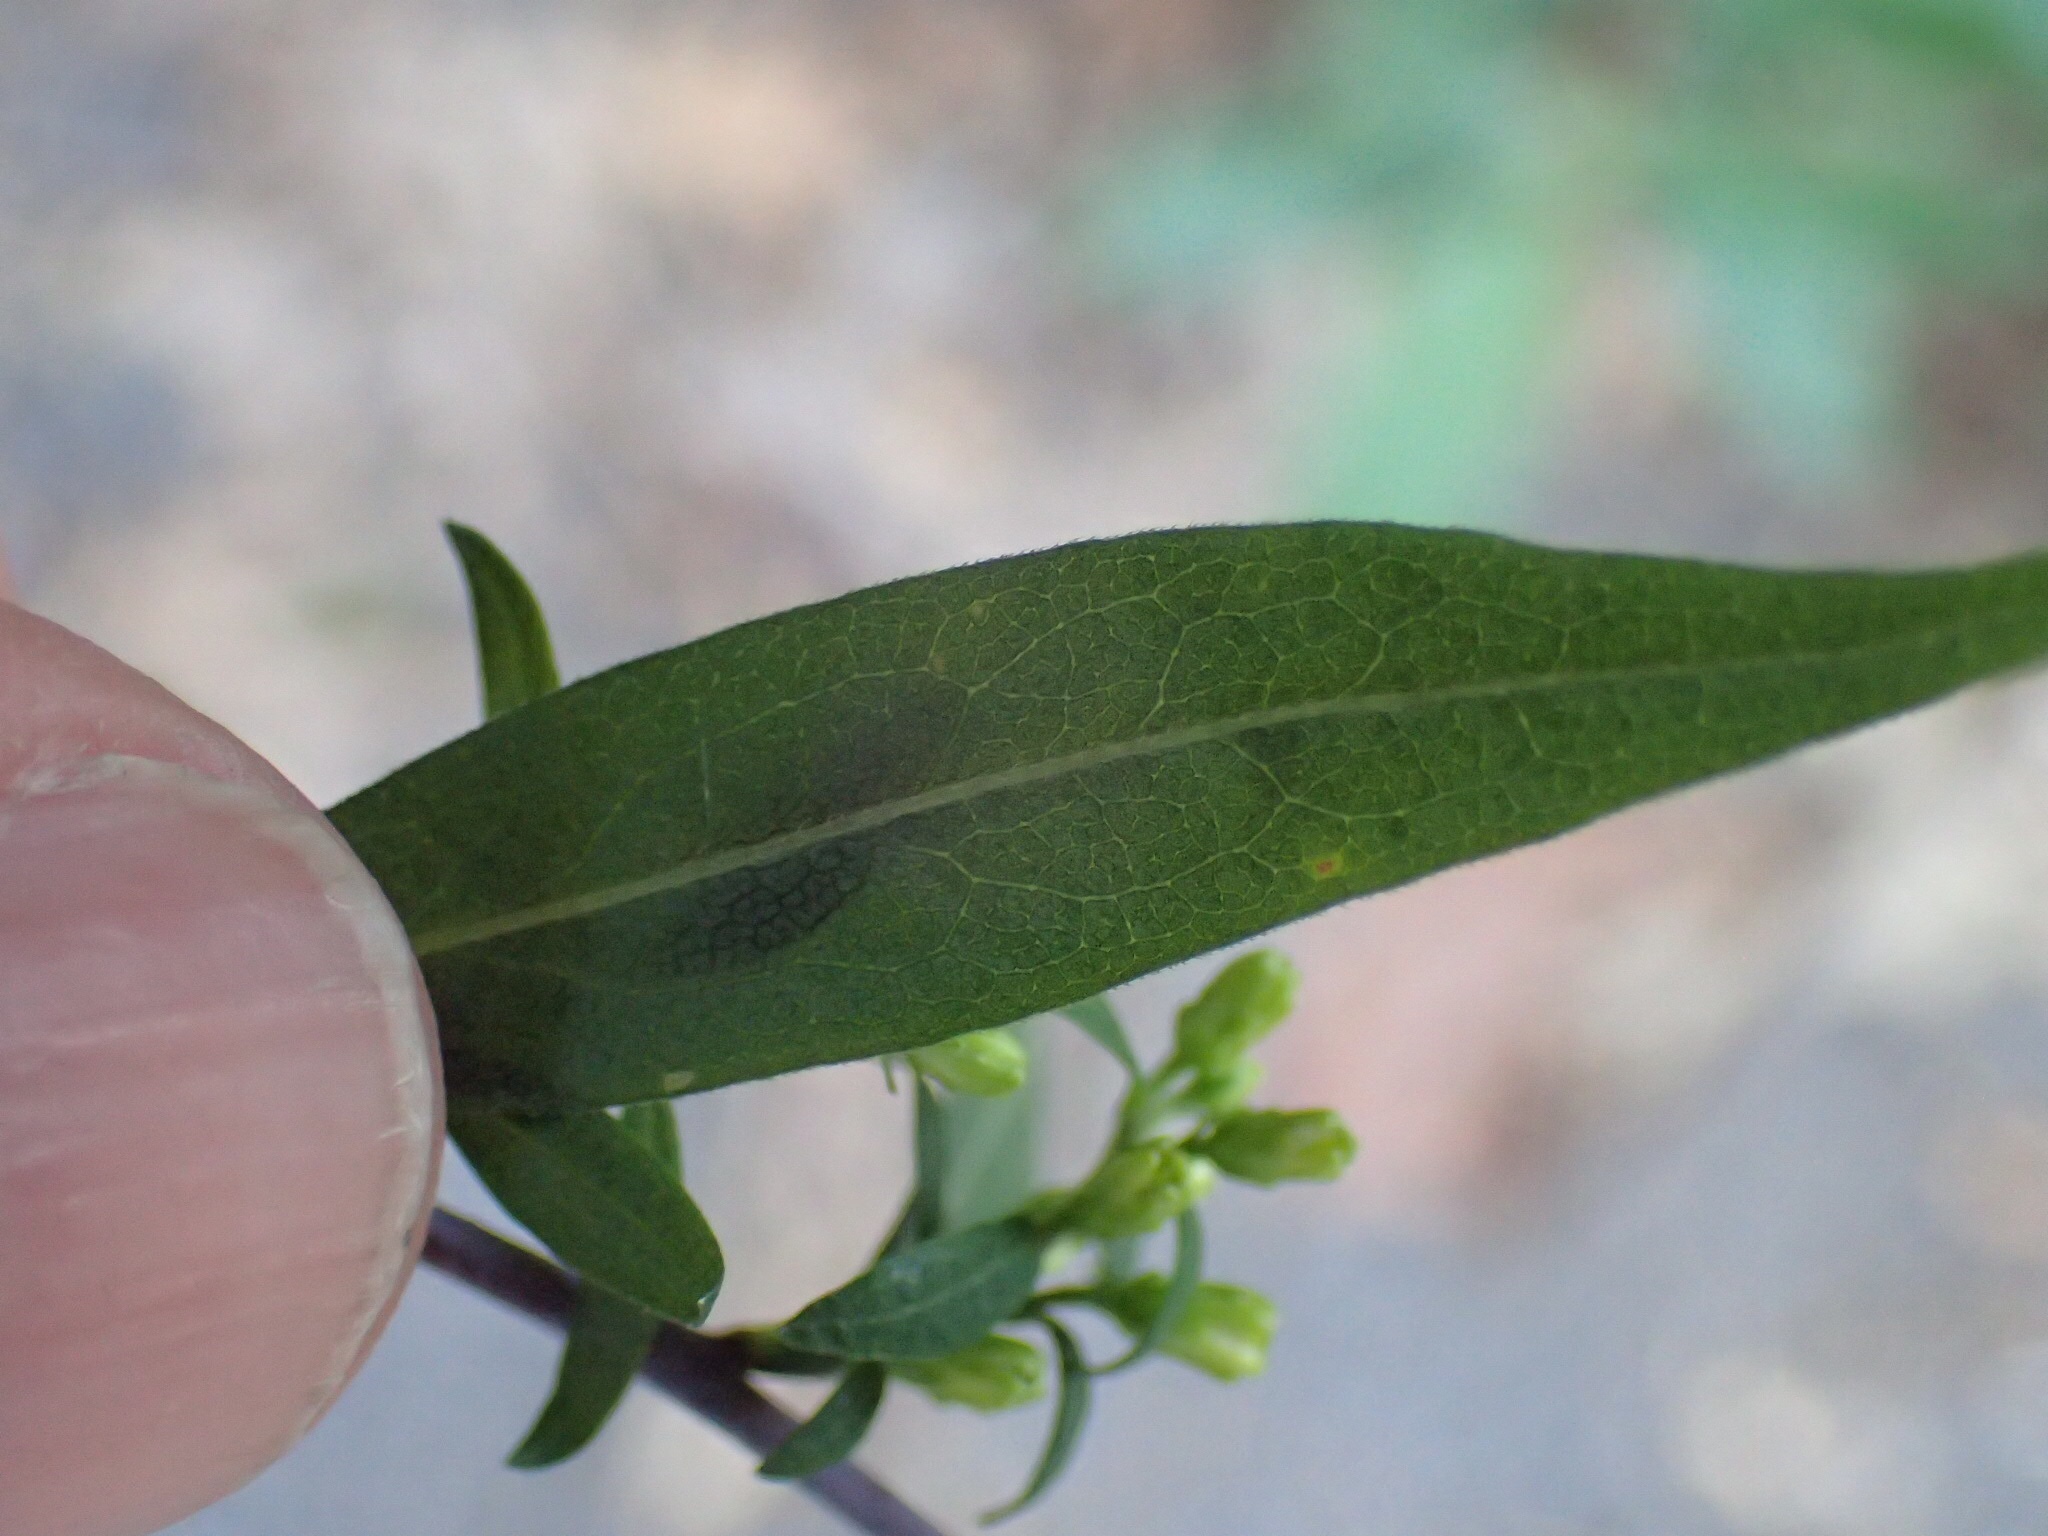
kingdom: Plantae
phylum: Tracheophyta
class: Magnoliopsida
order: Asterales
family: Asteraceae
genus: Solidago
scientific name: Solidago caesia
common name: Woodland goldenrod
